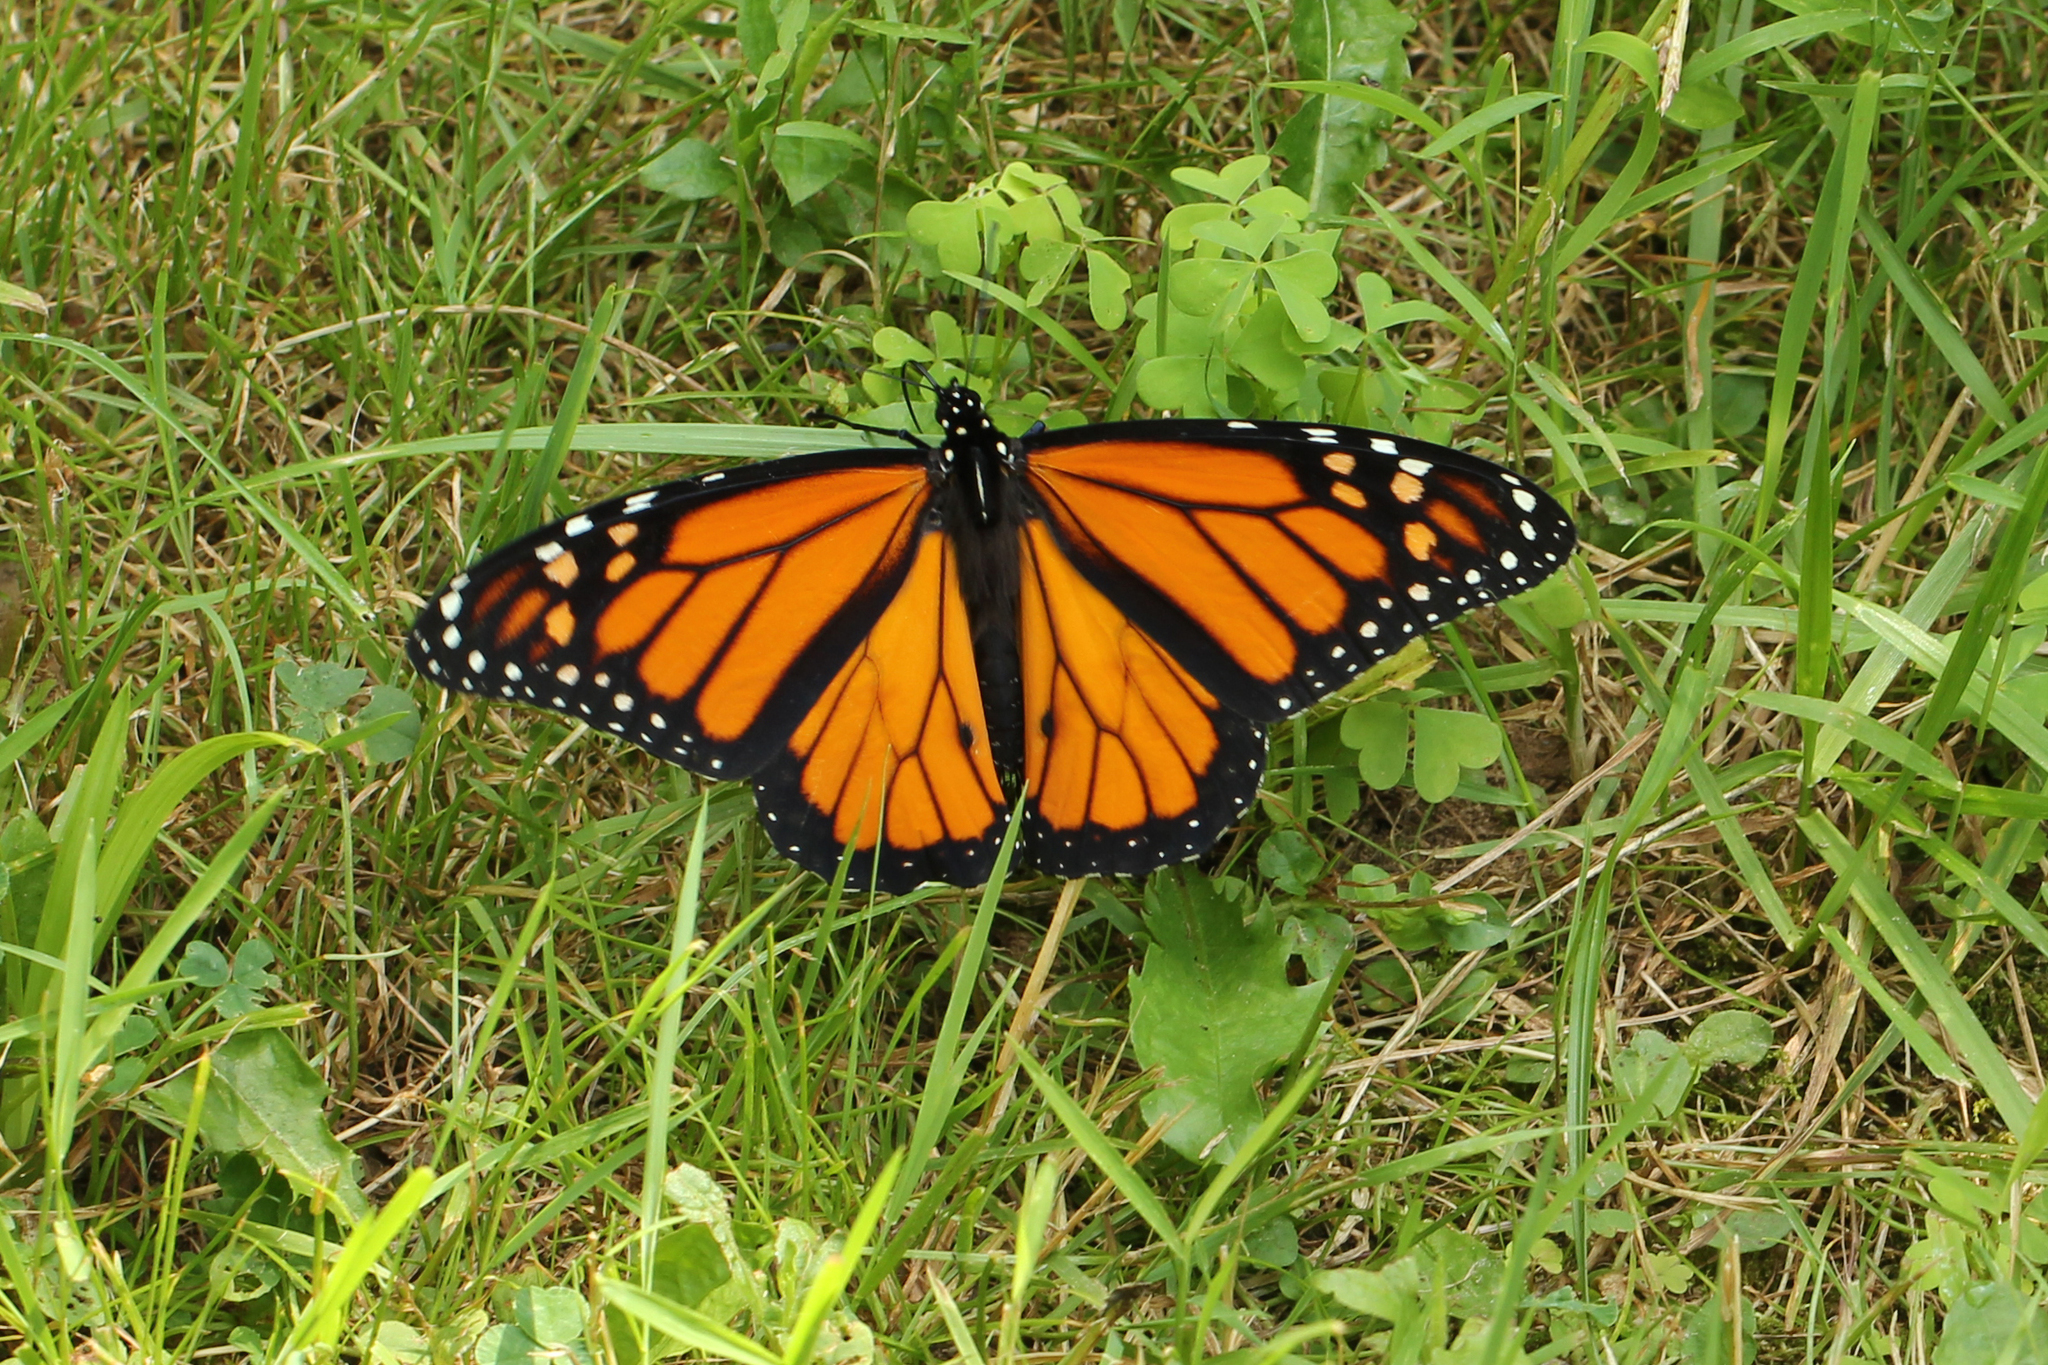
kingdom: Animalia
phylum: Arthropoda
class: Insecta
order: Lepidoptera
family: Nymphalidae
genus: Danaus
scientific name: Danaus plexippus
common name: Monarch
